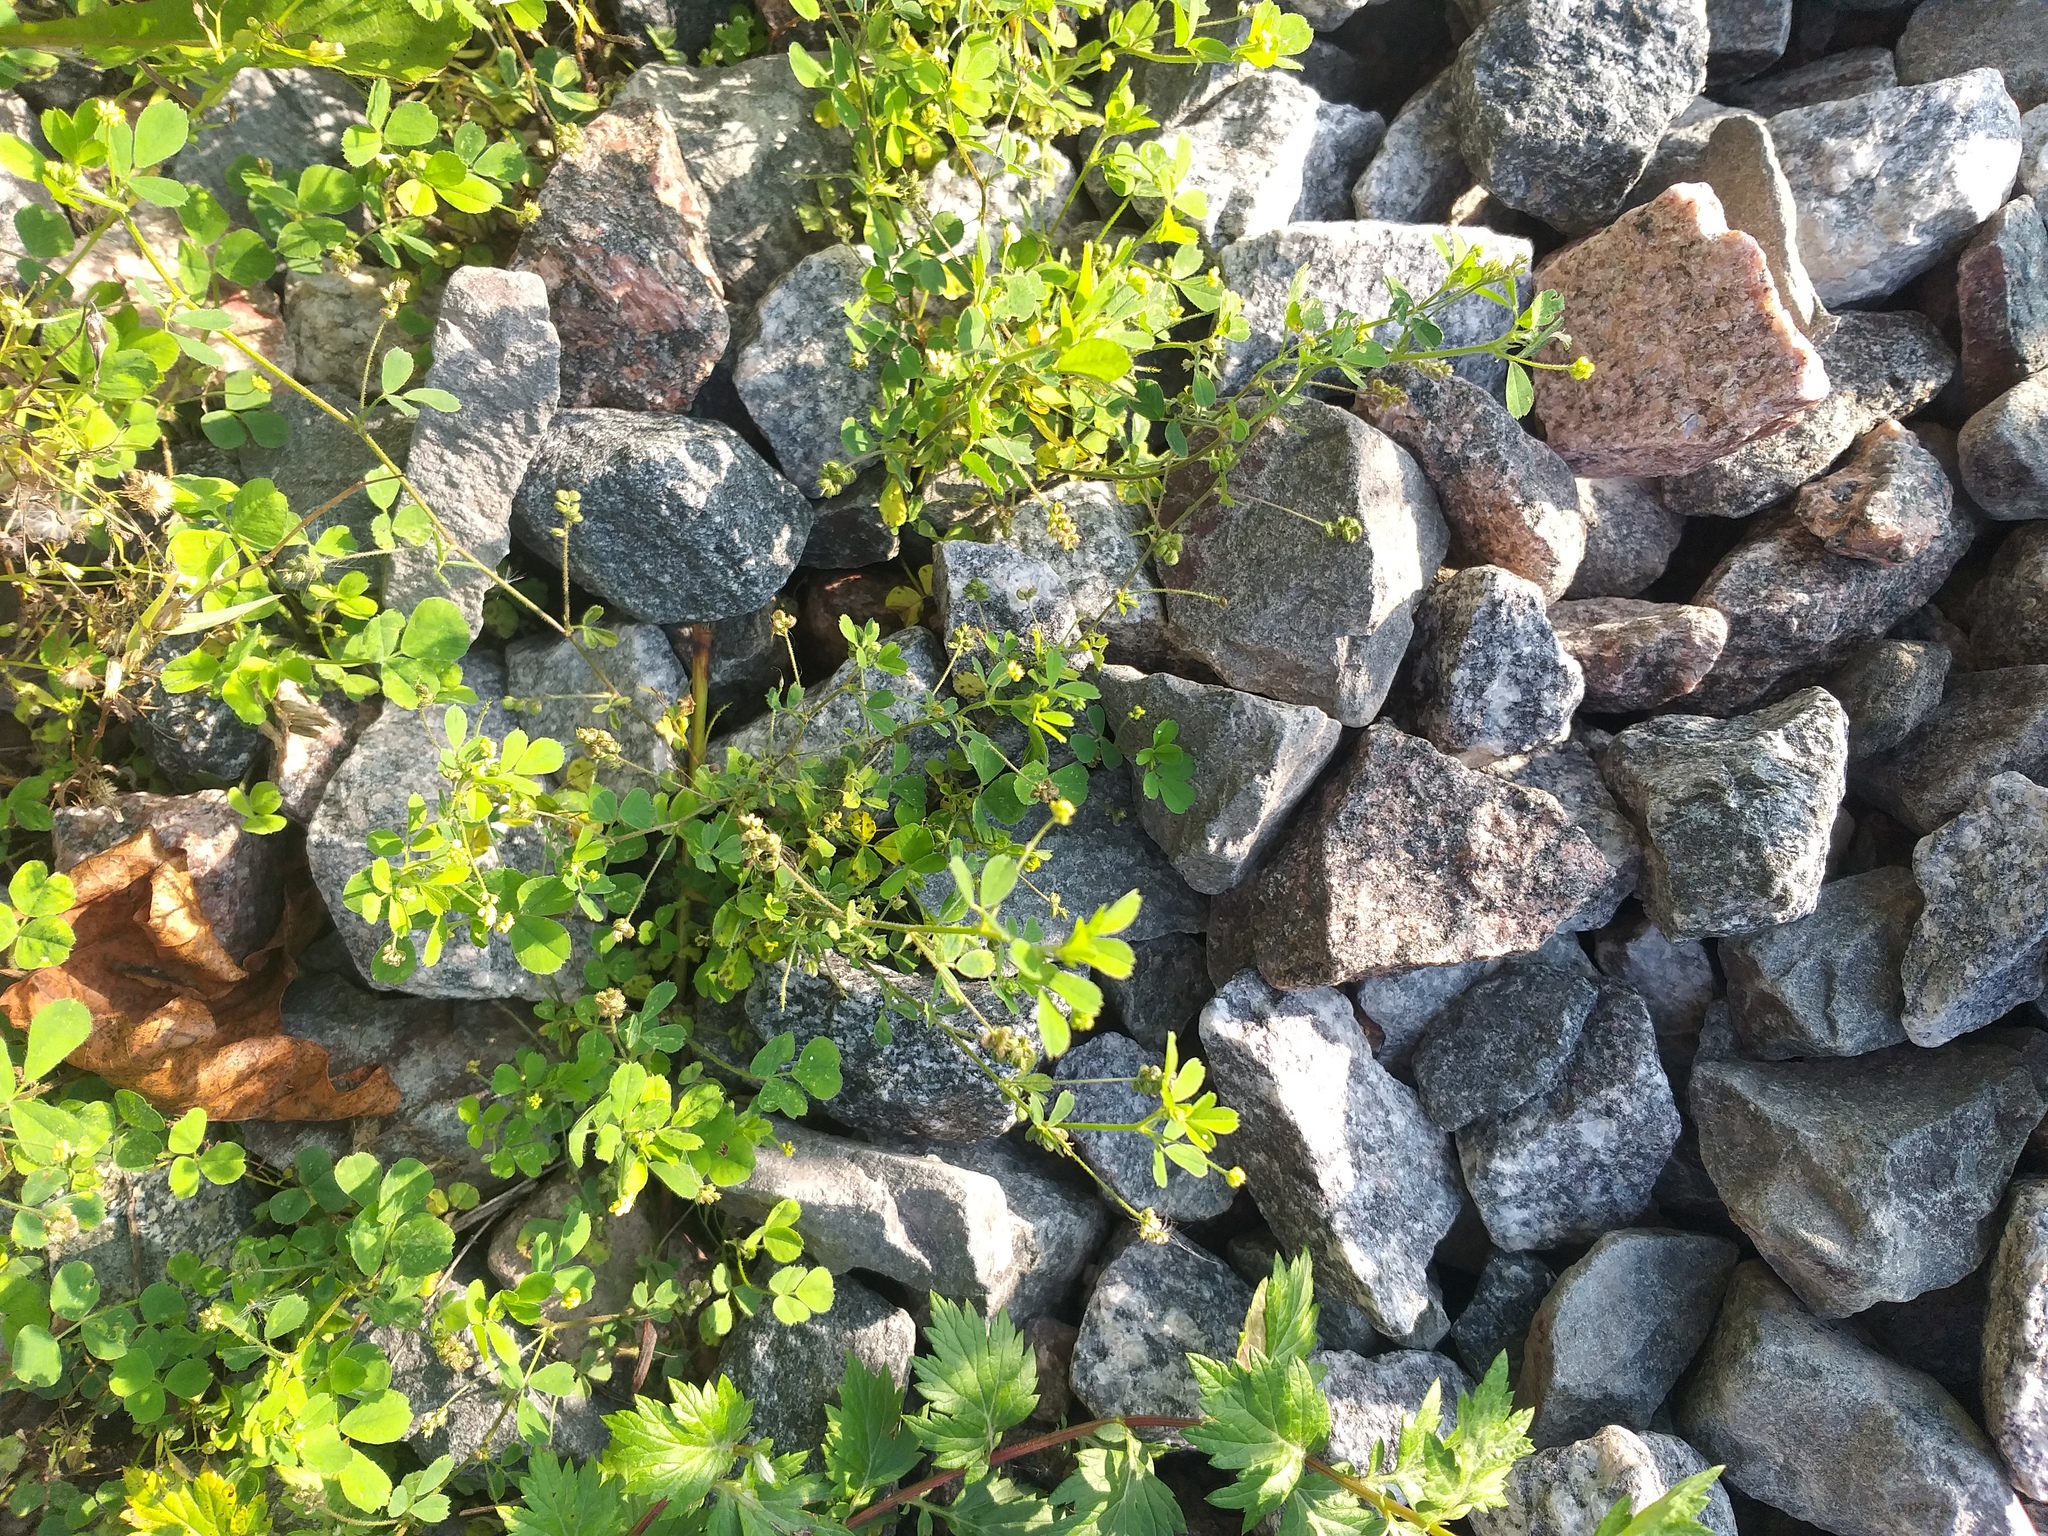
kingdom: Plantae
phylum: Tracheophyta
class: Magnoliopsida
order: Fabales
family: Fabaceae
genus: Medicago
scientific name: Medicago lupulina
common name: Black medick
